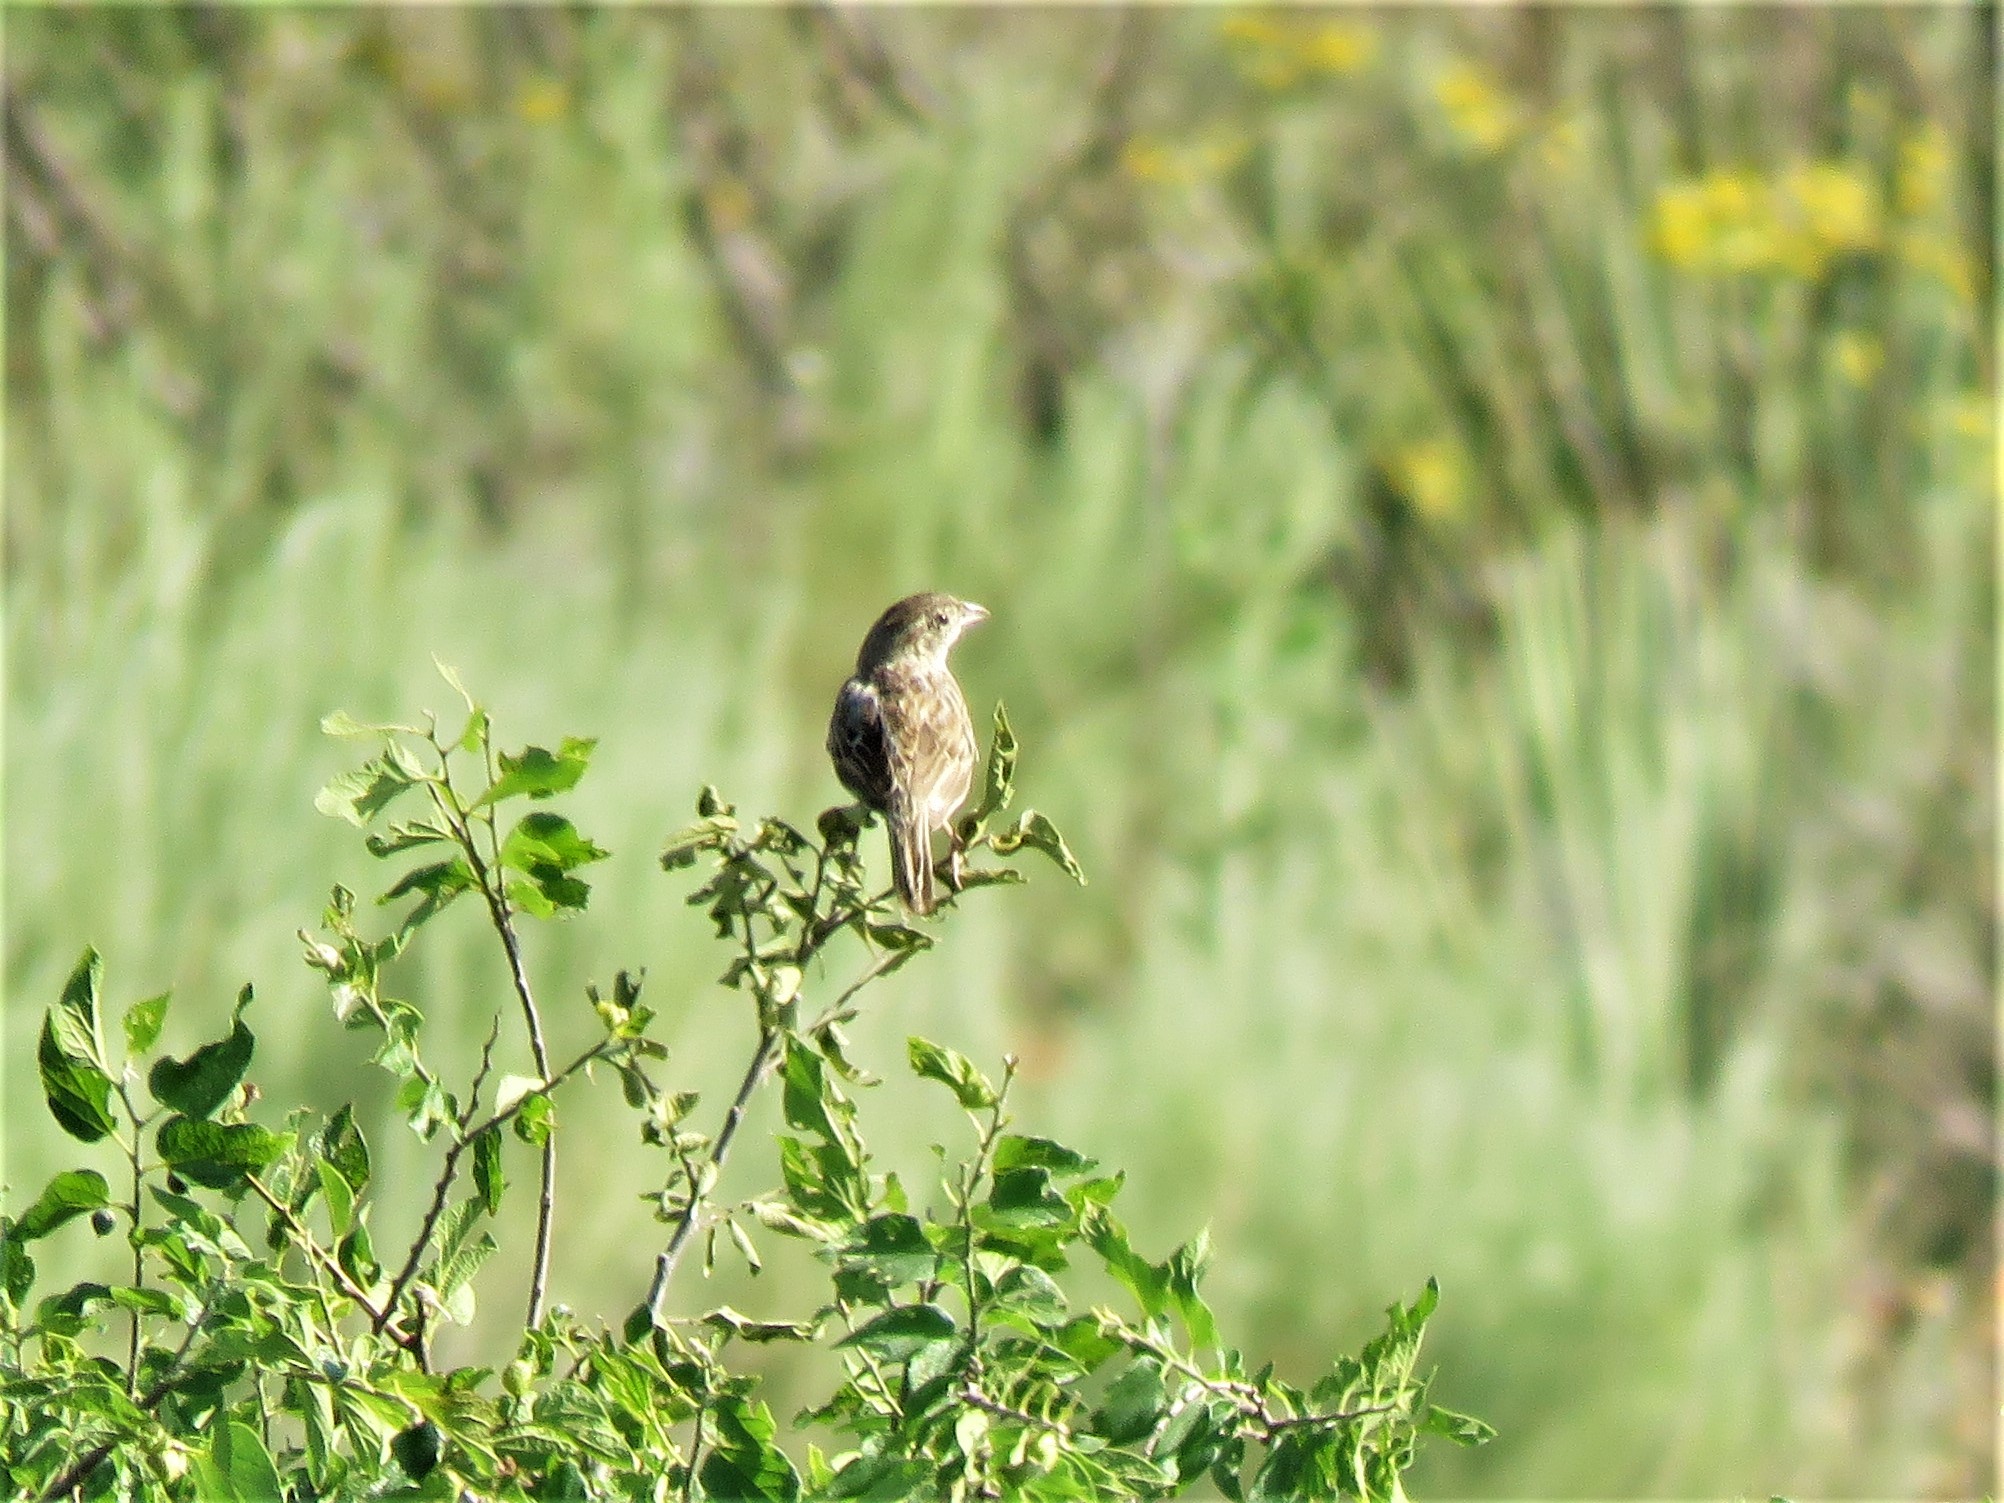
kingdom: Animalia
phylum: Chordata
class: Aves
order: Passeriformes
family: Passerellidae
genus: Peucaea
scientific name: Peucaea cassinii
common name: Cassin's sparrow
